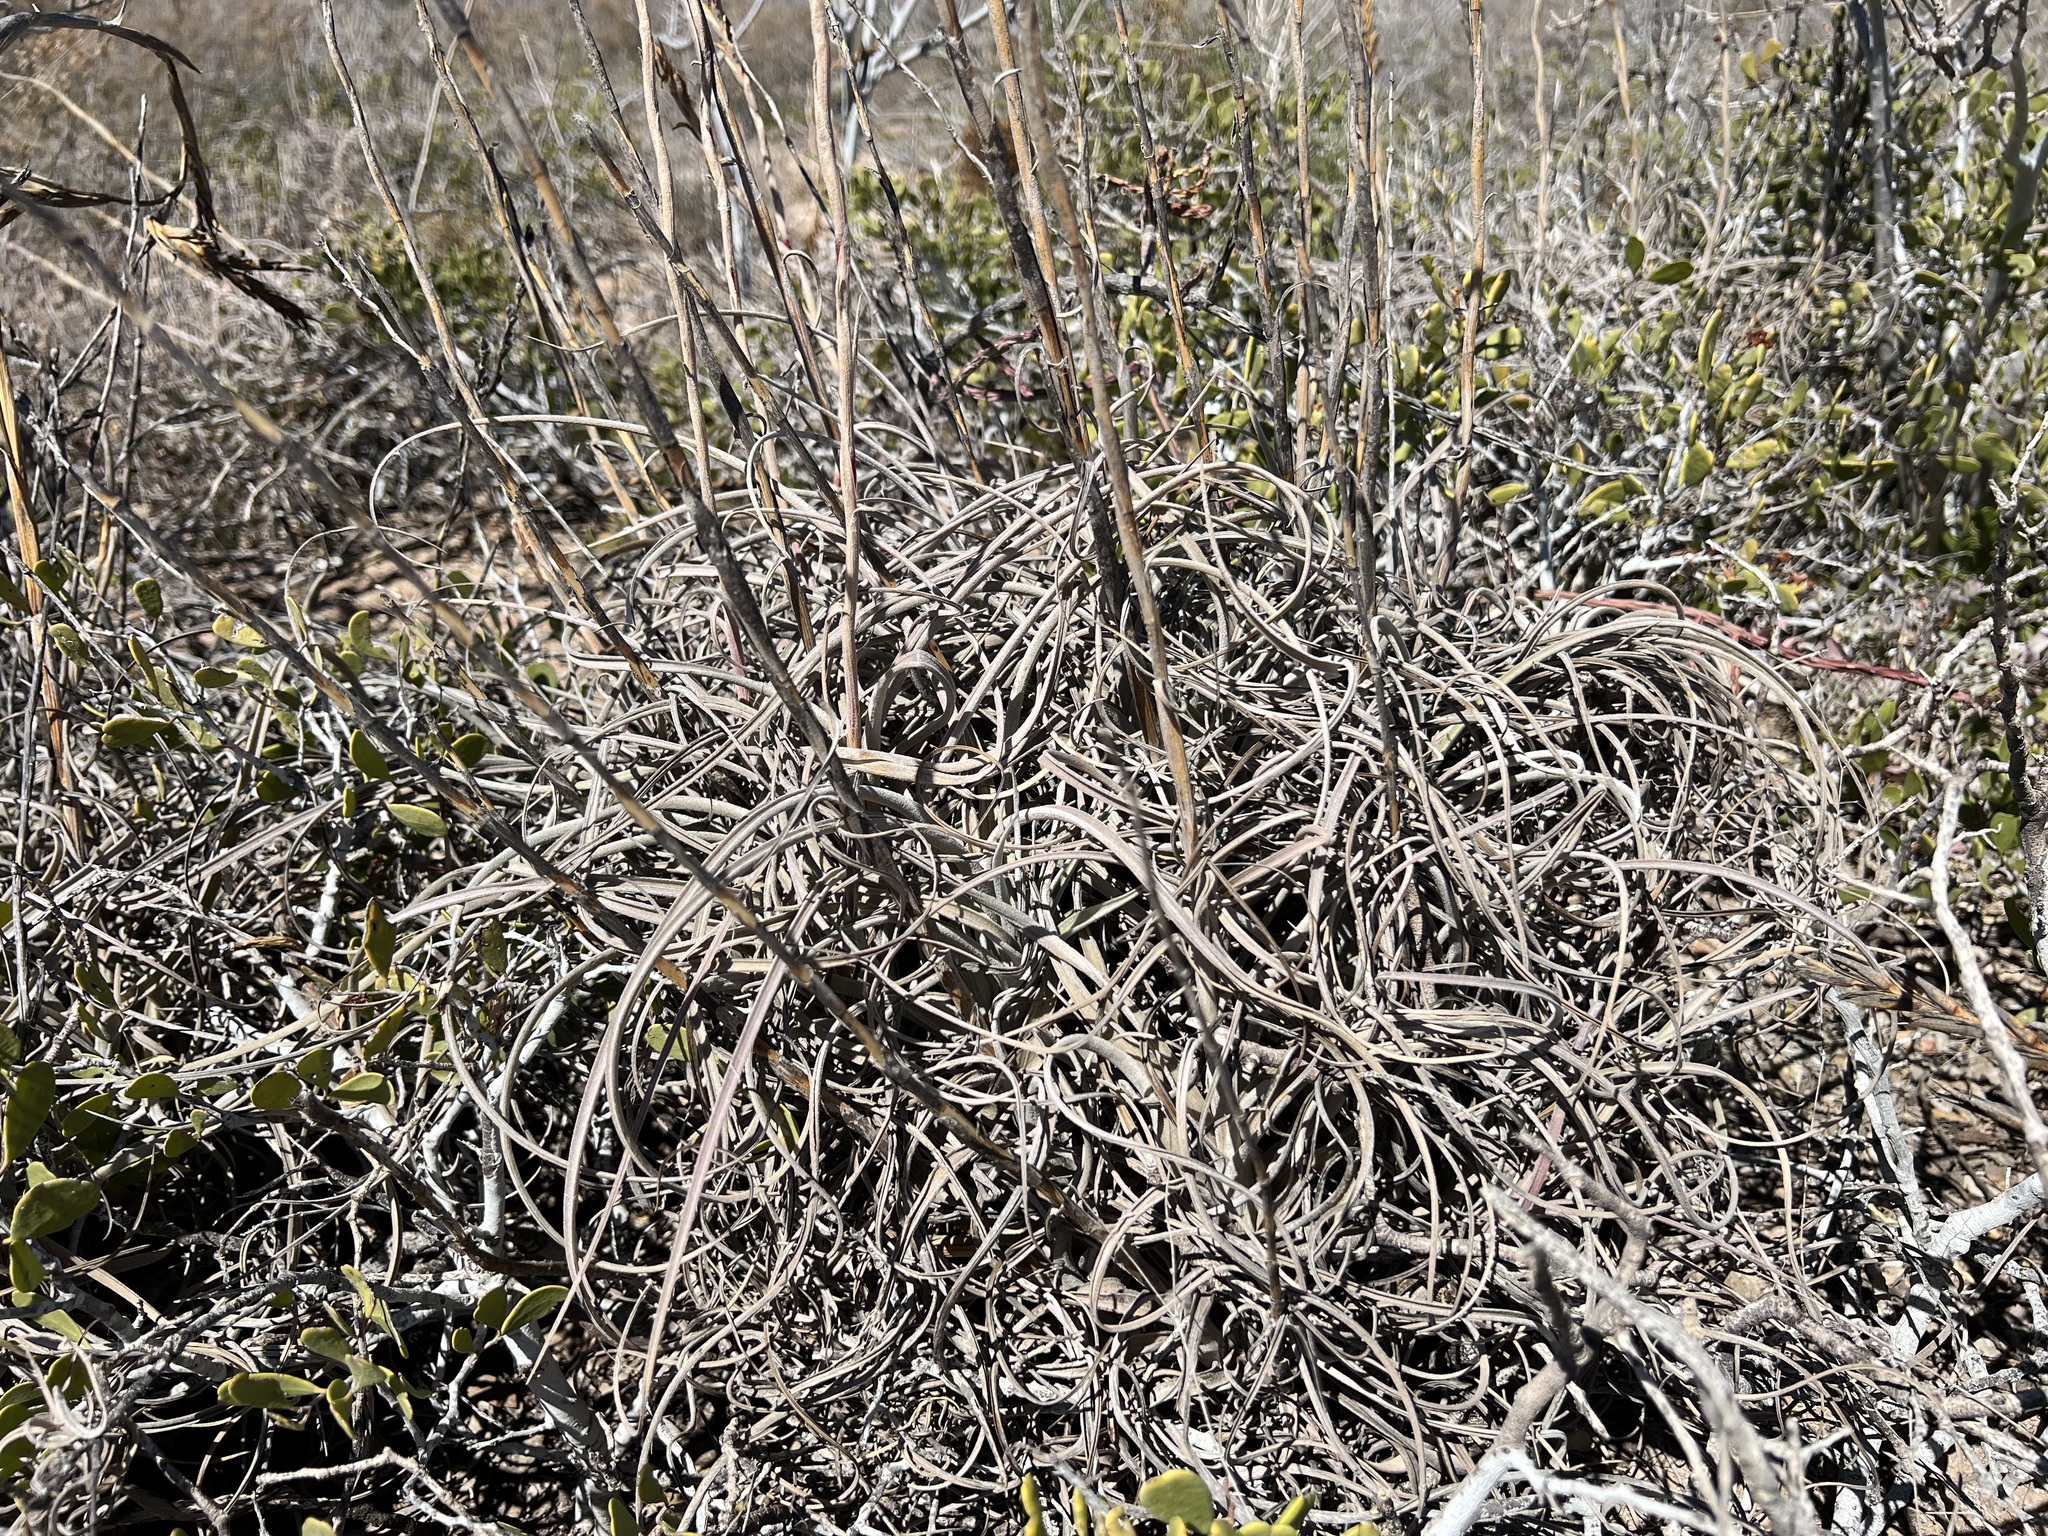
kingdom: Plantae
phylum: Tracheophyta
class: Liliopsida
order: Poales
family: Bromeliaceae
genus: Tillandsia
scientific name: Tillandsia exserta
